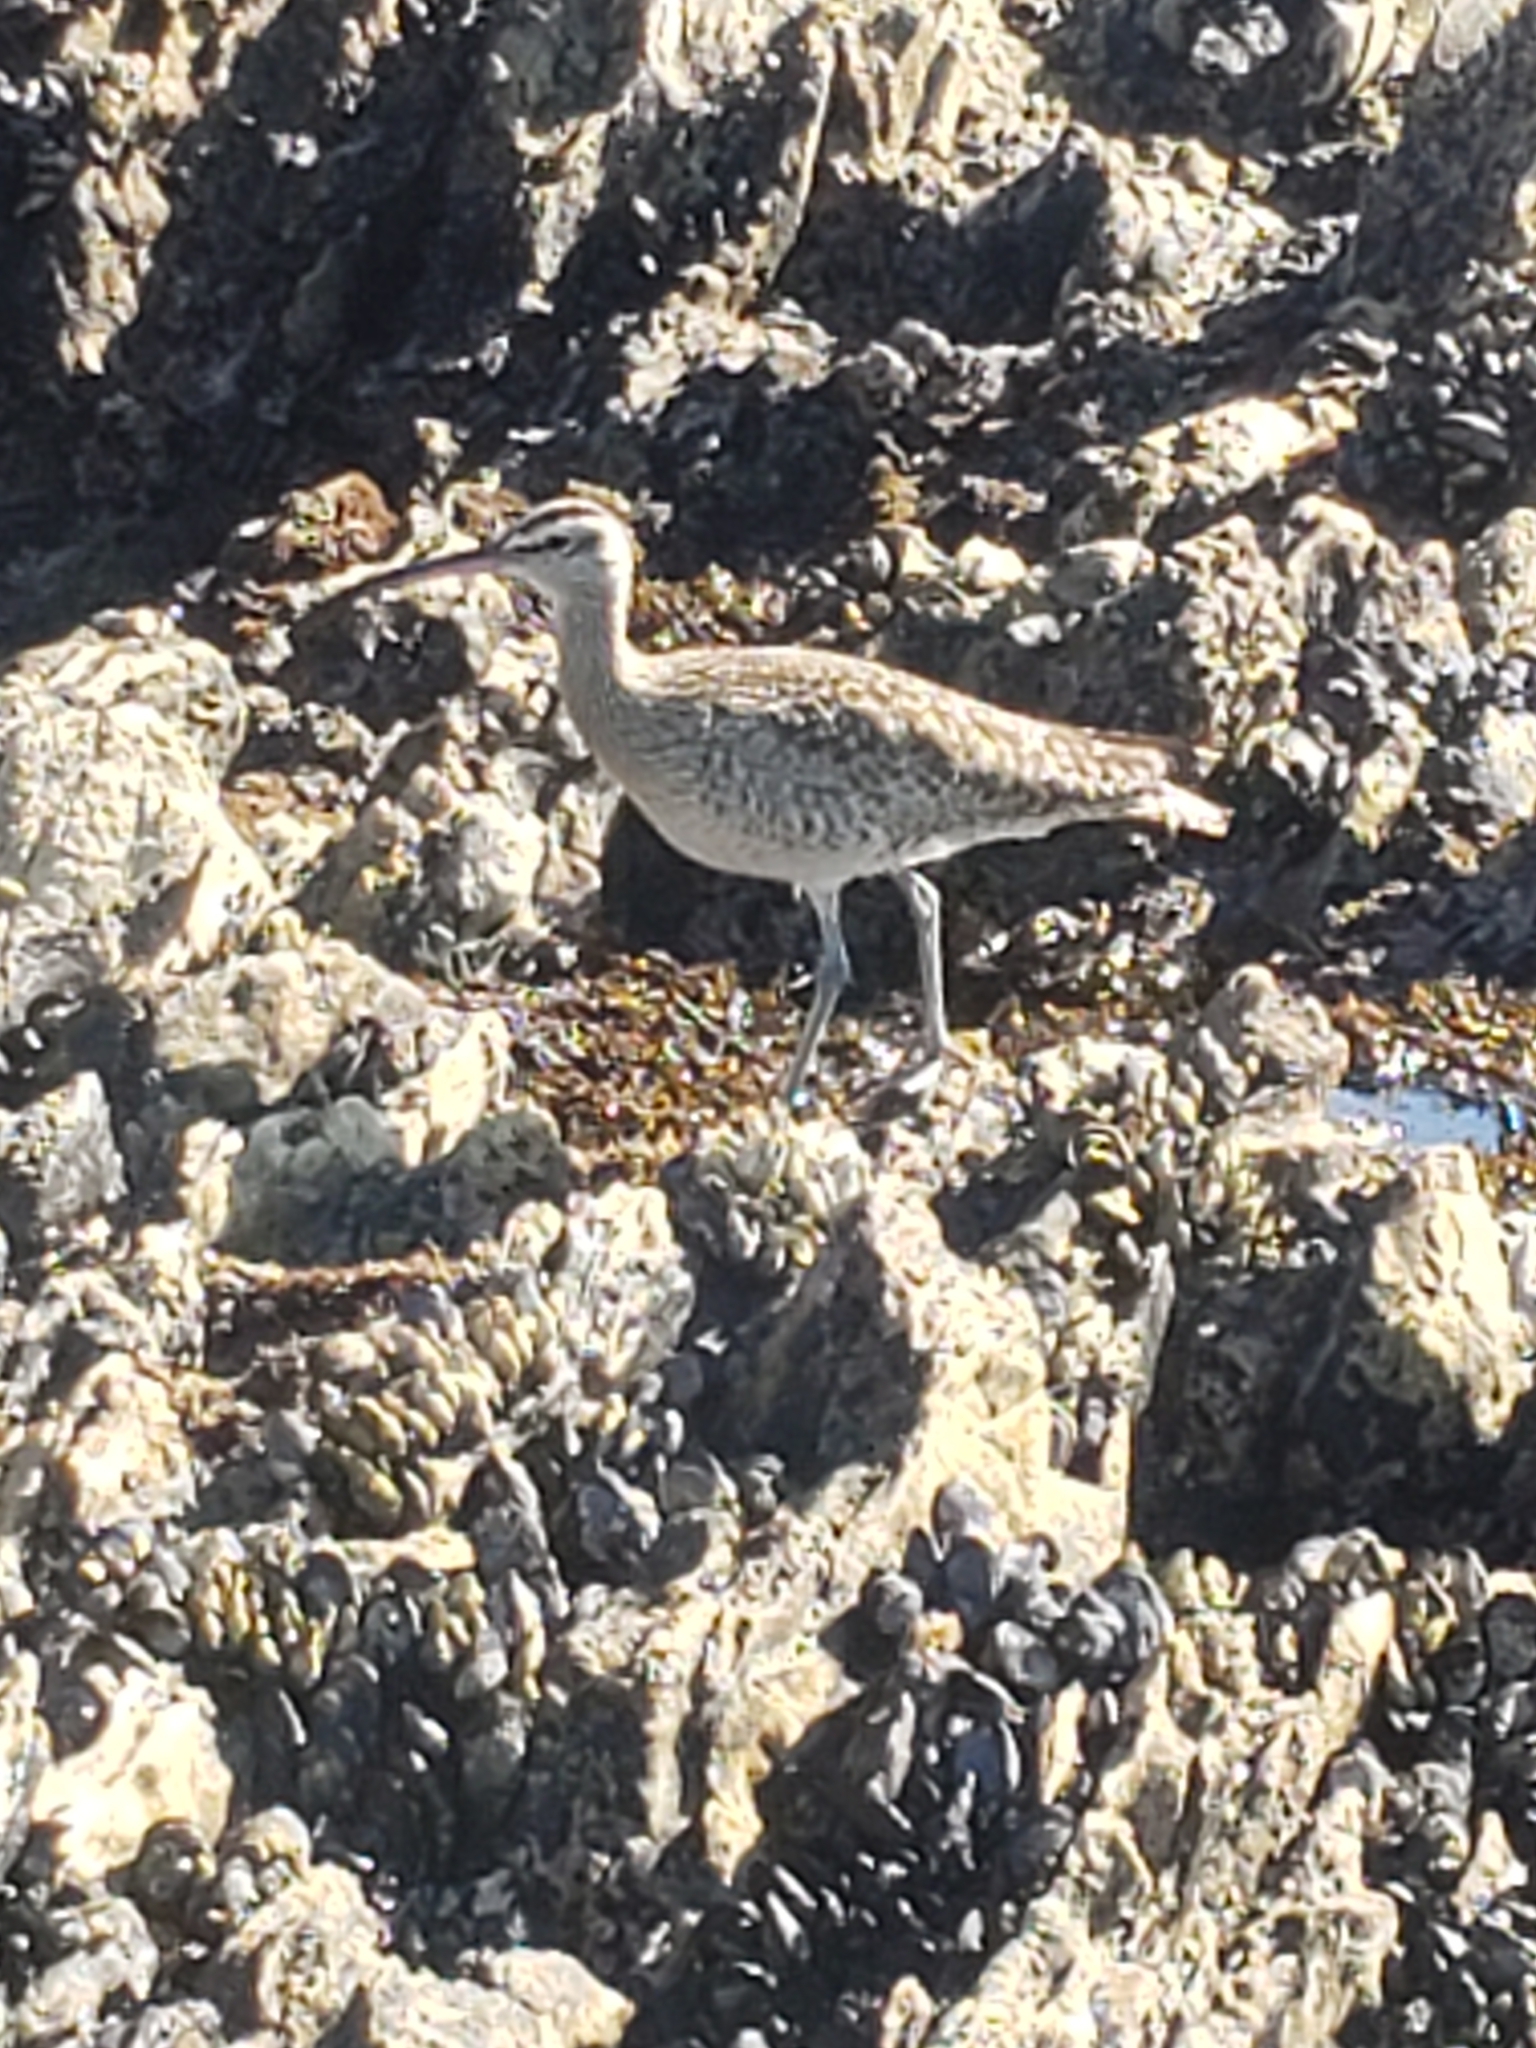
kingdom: Animalia
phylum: Chordata
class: Aves
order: Charadriiformes
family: Scolopacidae
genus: Numenius
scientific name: Numenius phaeopus
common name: Whimbrel
